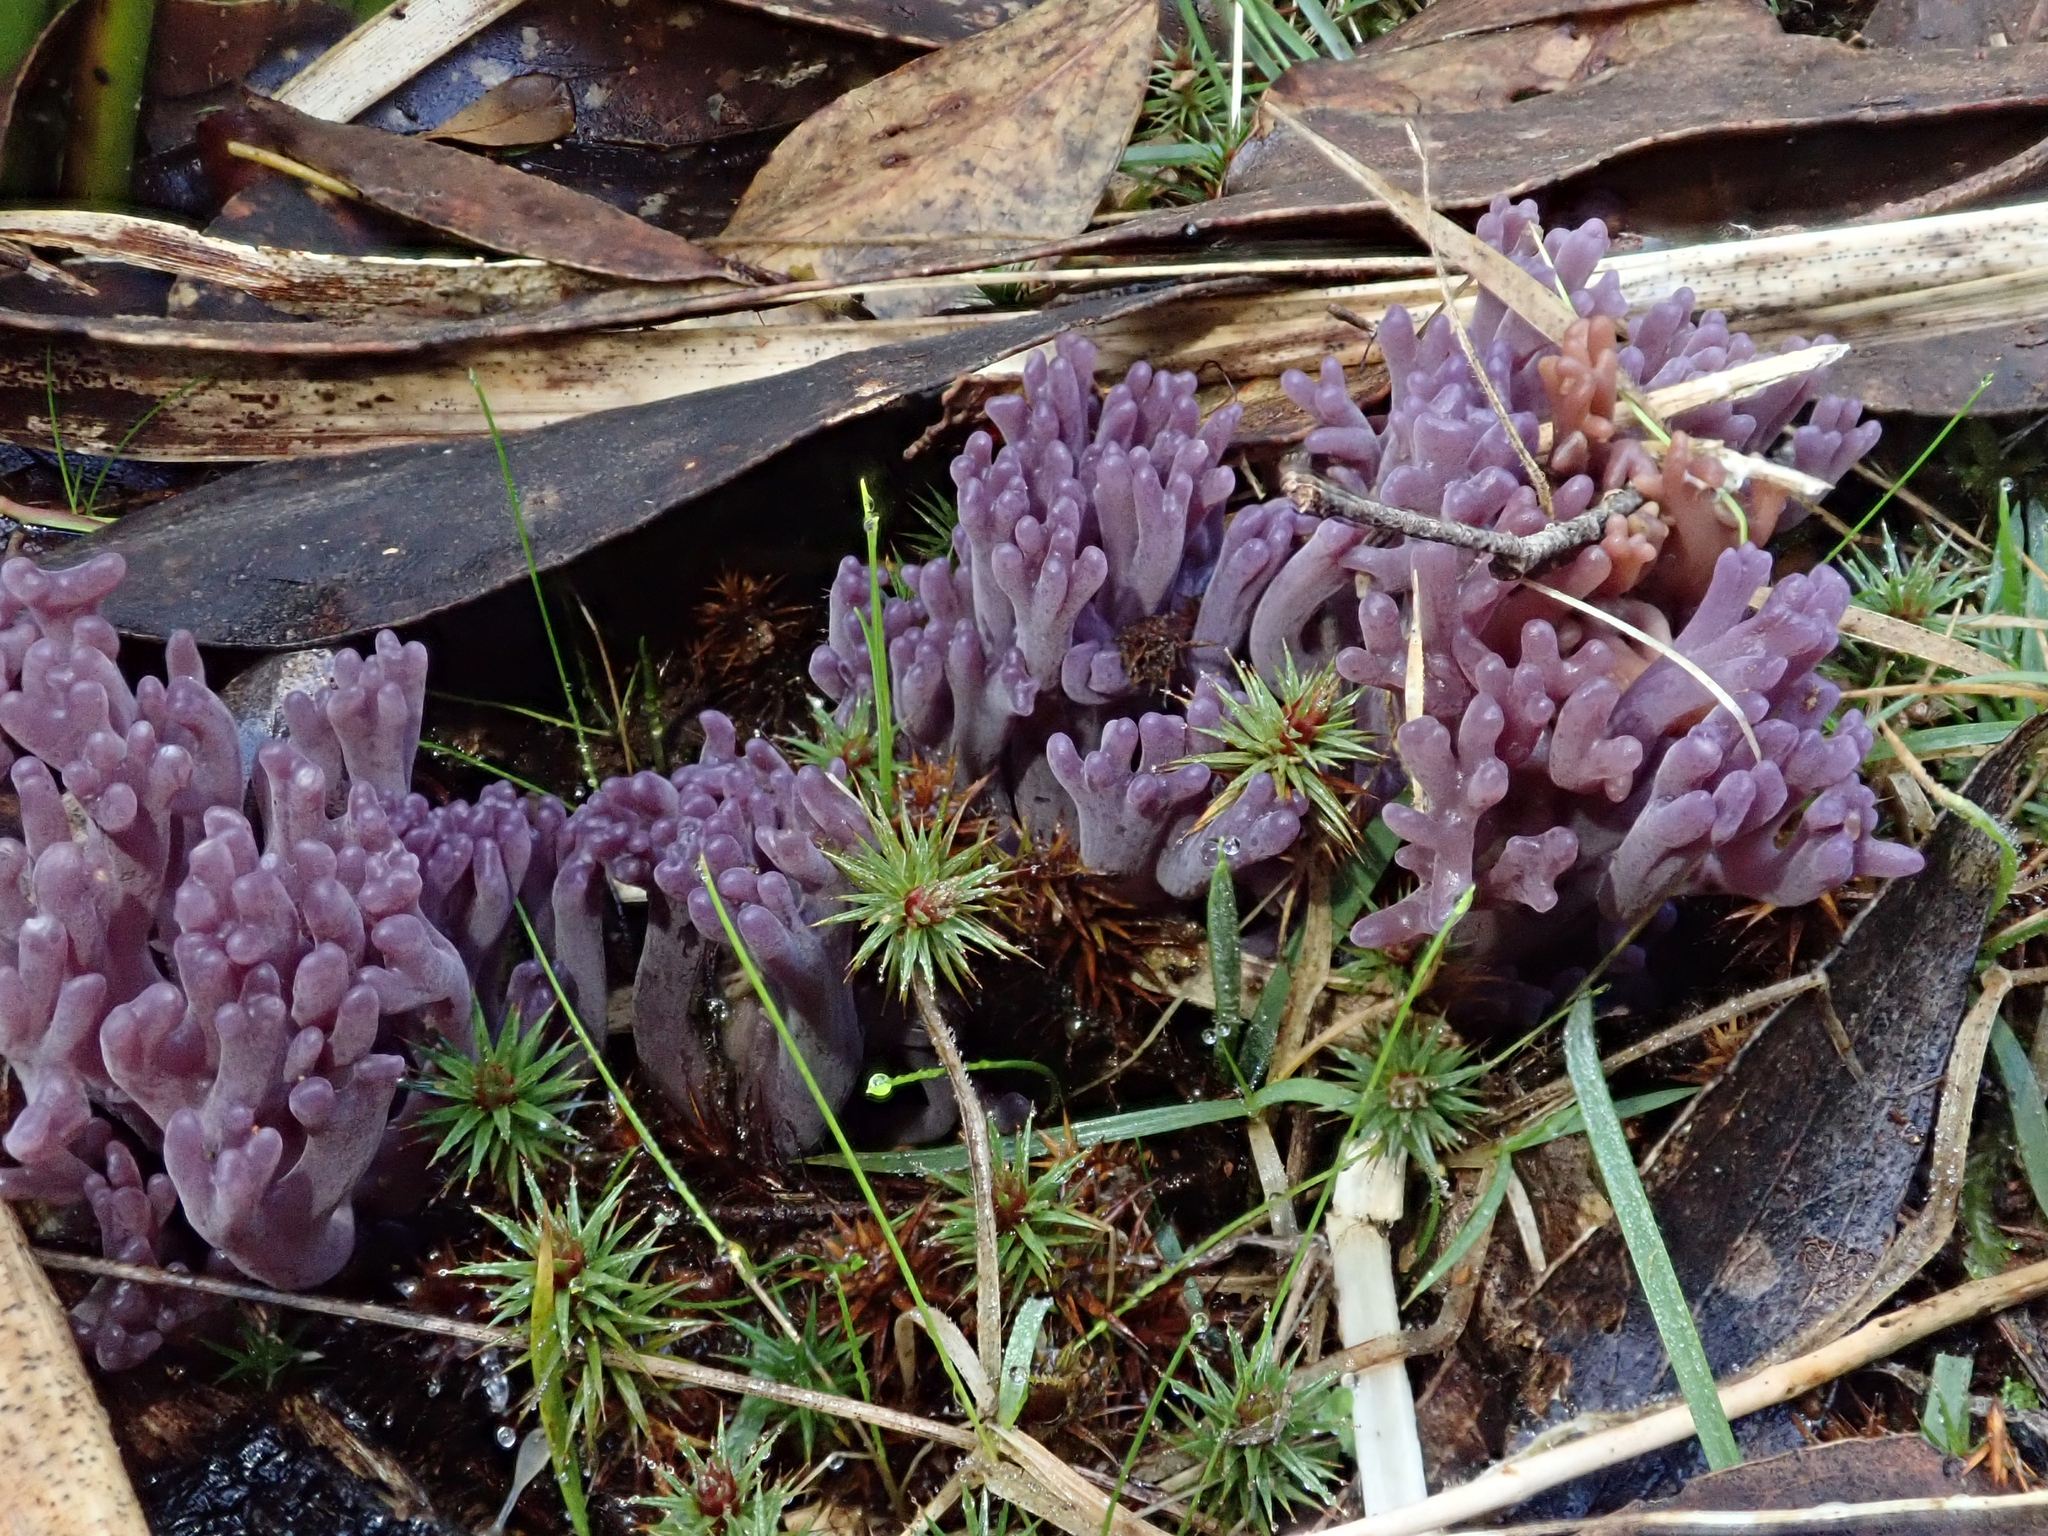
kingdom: Fungi
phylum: Basidiomycota
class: Agaricomycetes
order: Agaricales
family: Clavariaceae
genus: Clavaria
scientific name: Clavaria zollingeri
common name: Violet coral
